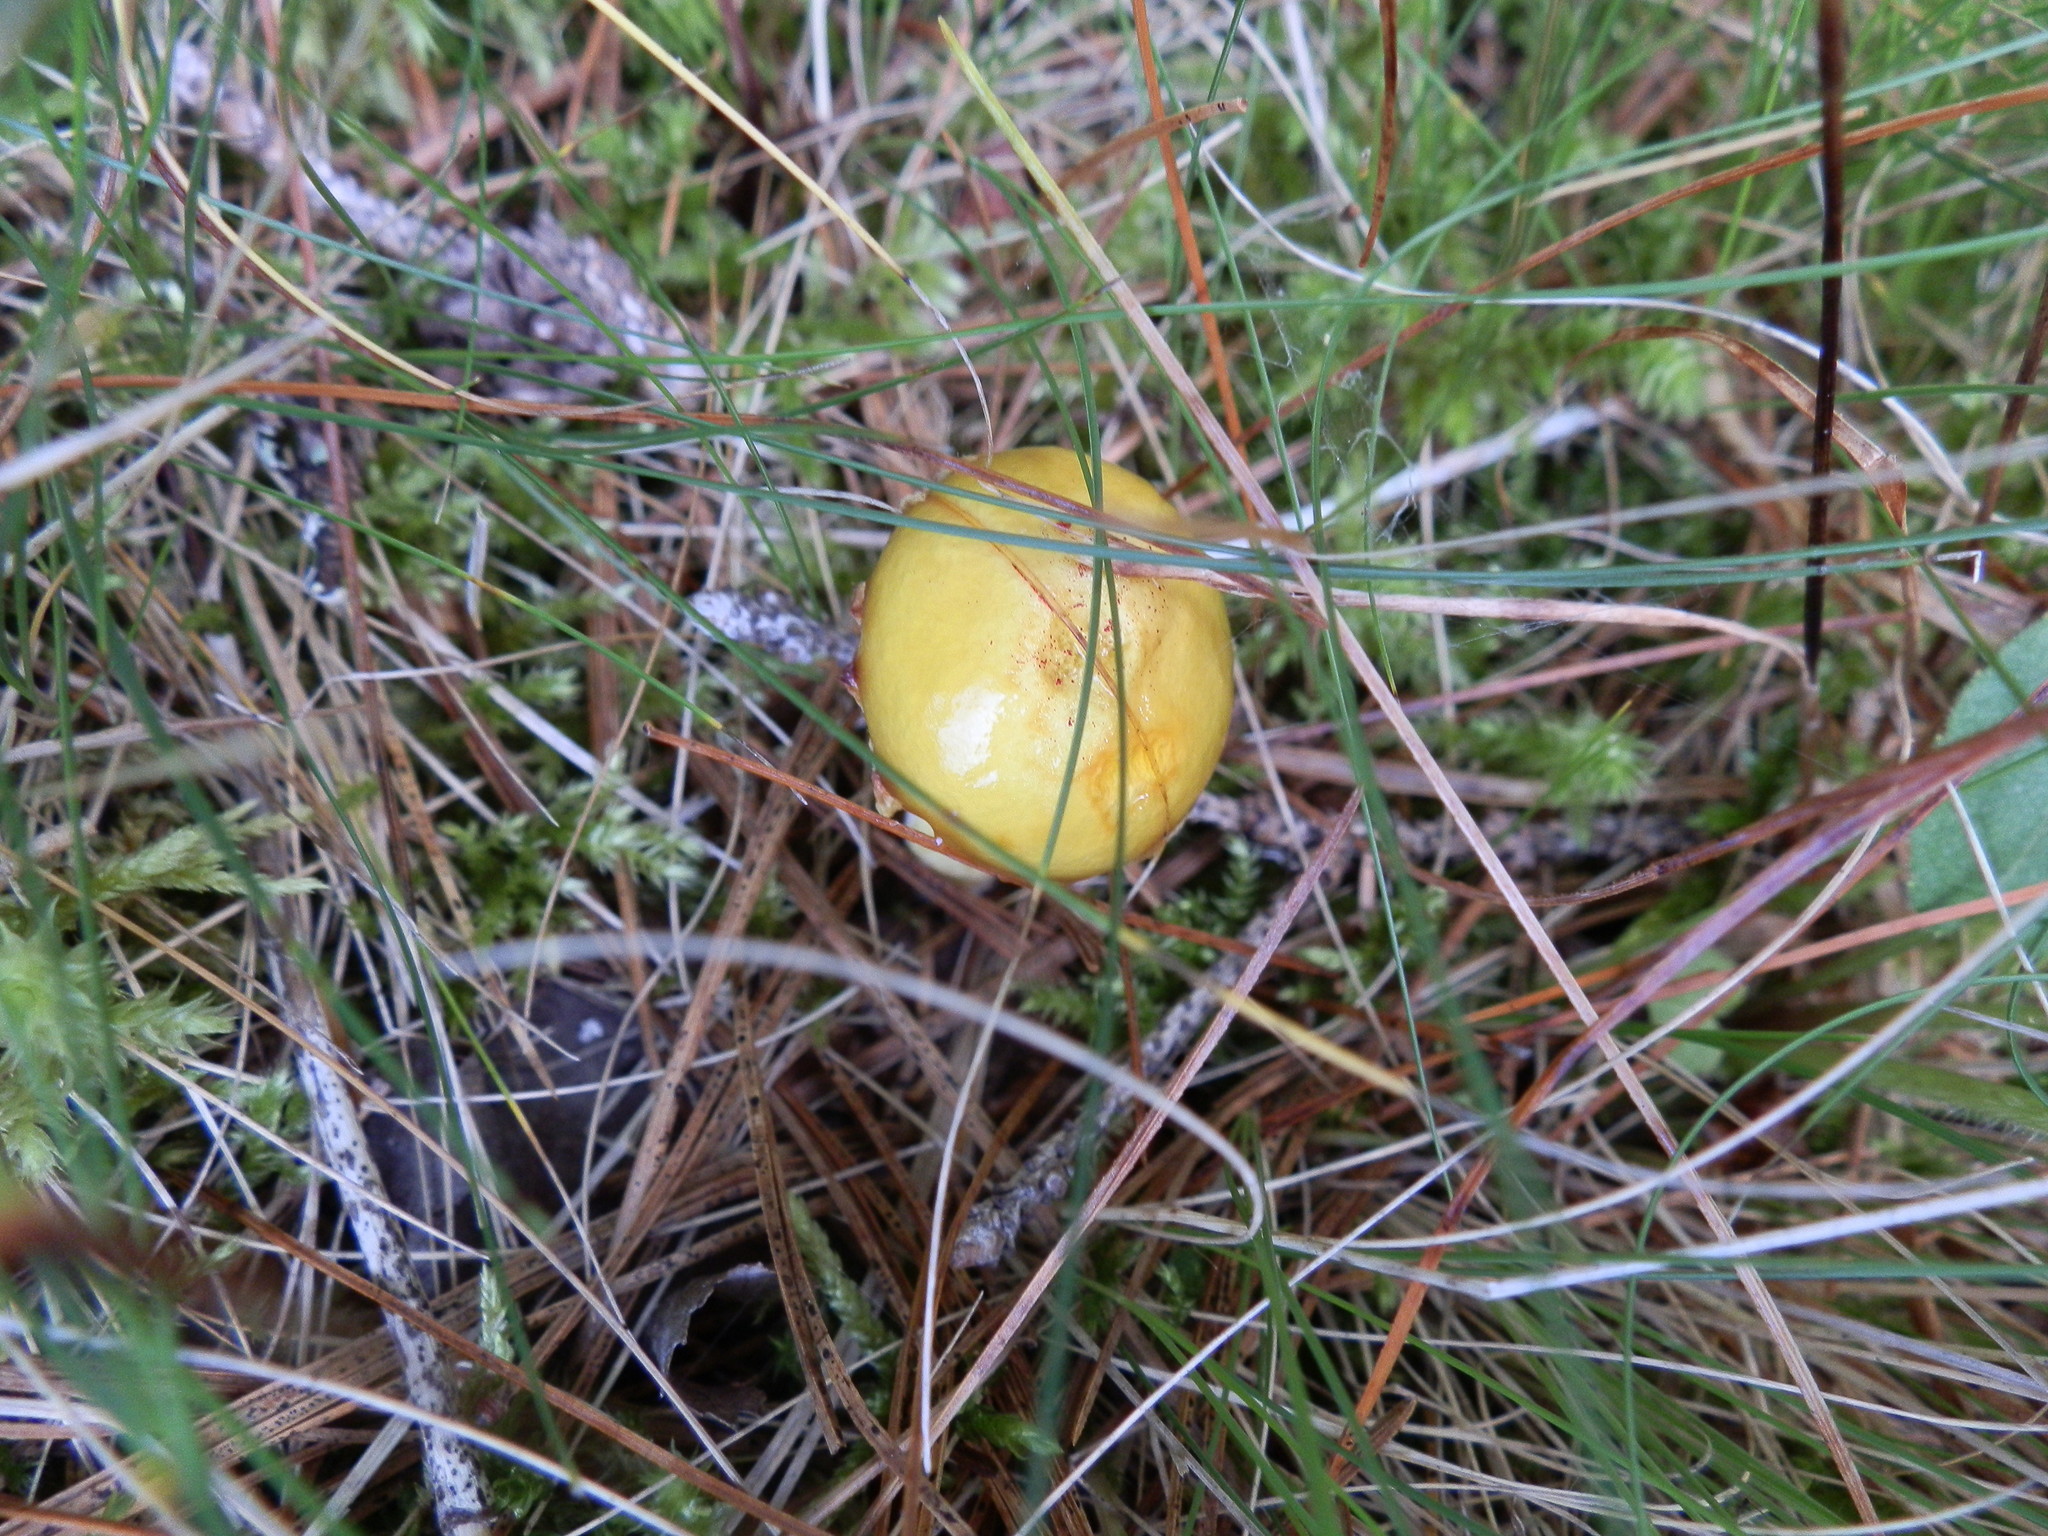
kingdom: Fungi
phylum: Basidiomycota
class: Agaricomycetes
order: Boletales
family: Suillaceae
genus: Suillus
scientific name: Suillus americanus
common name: Chicken fat mushroom
